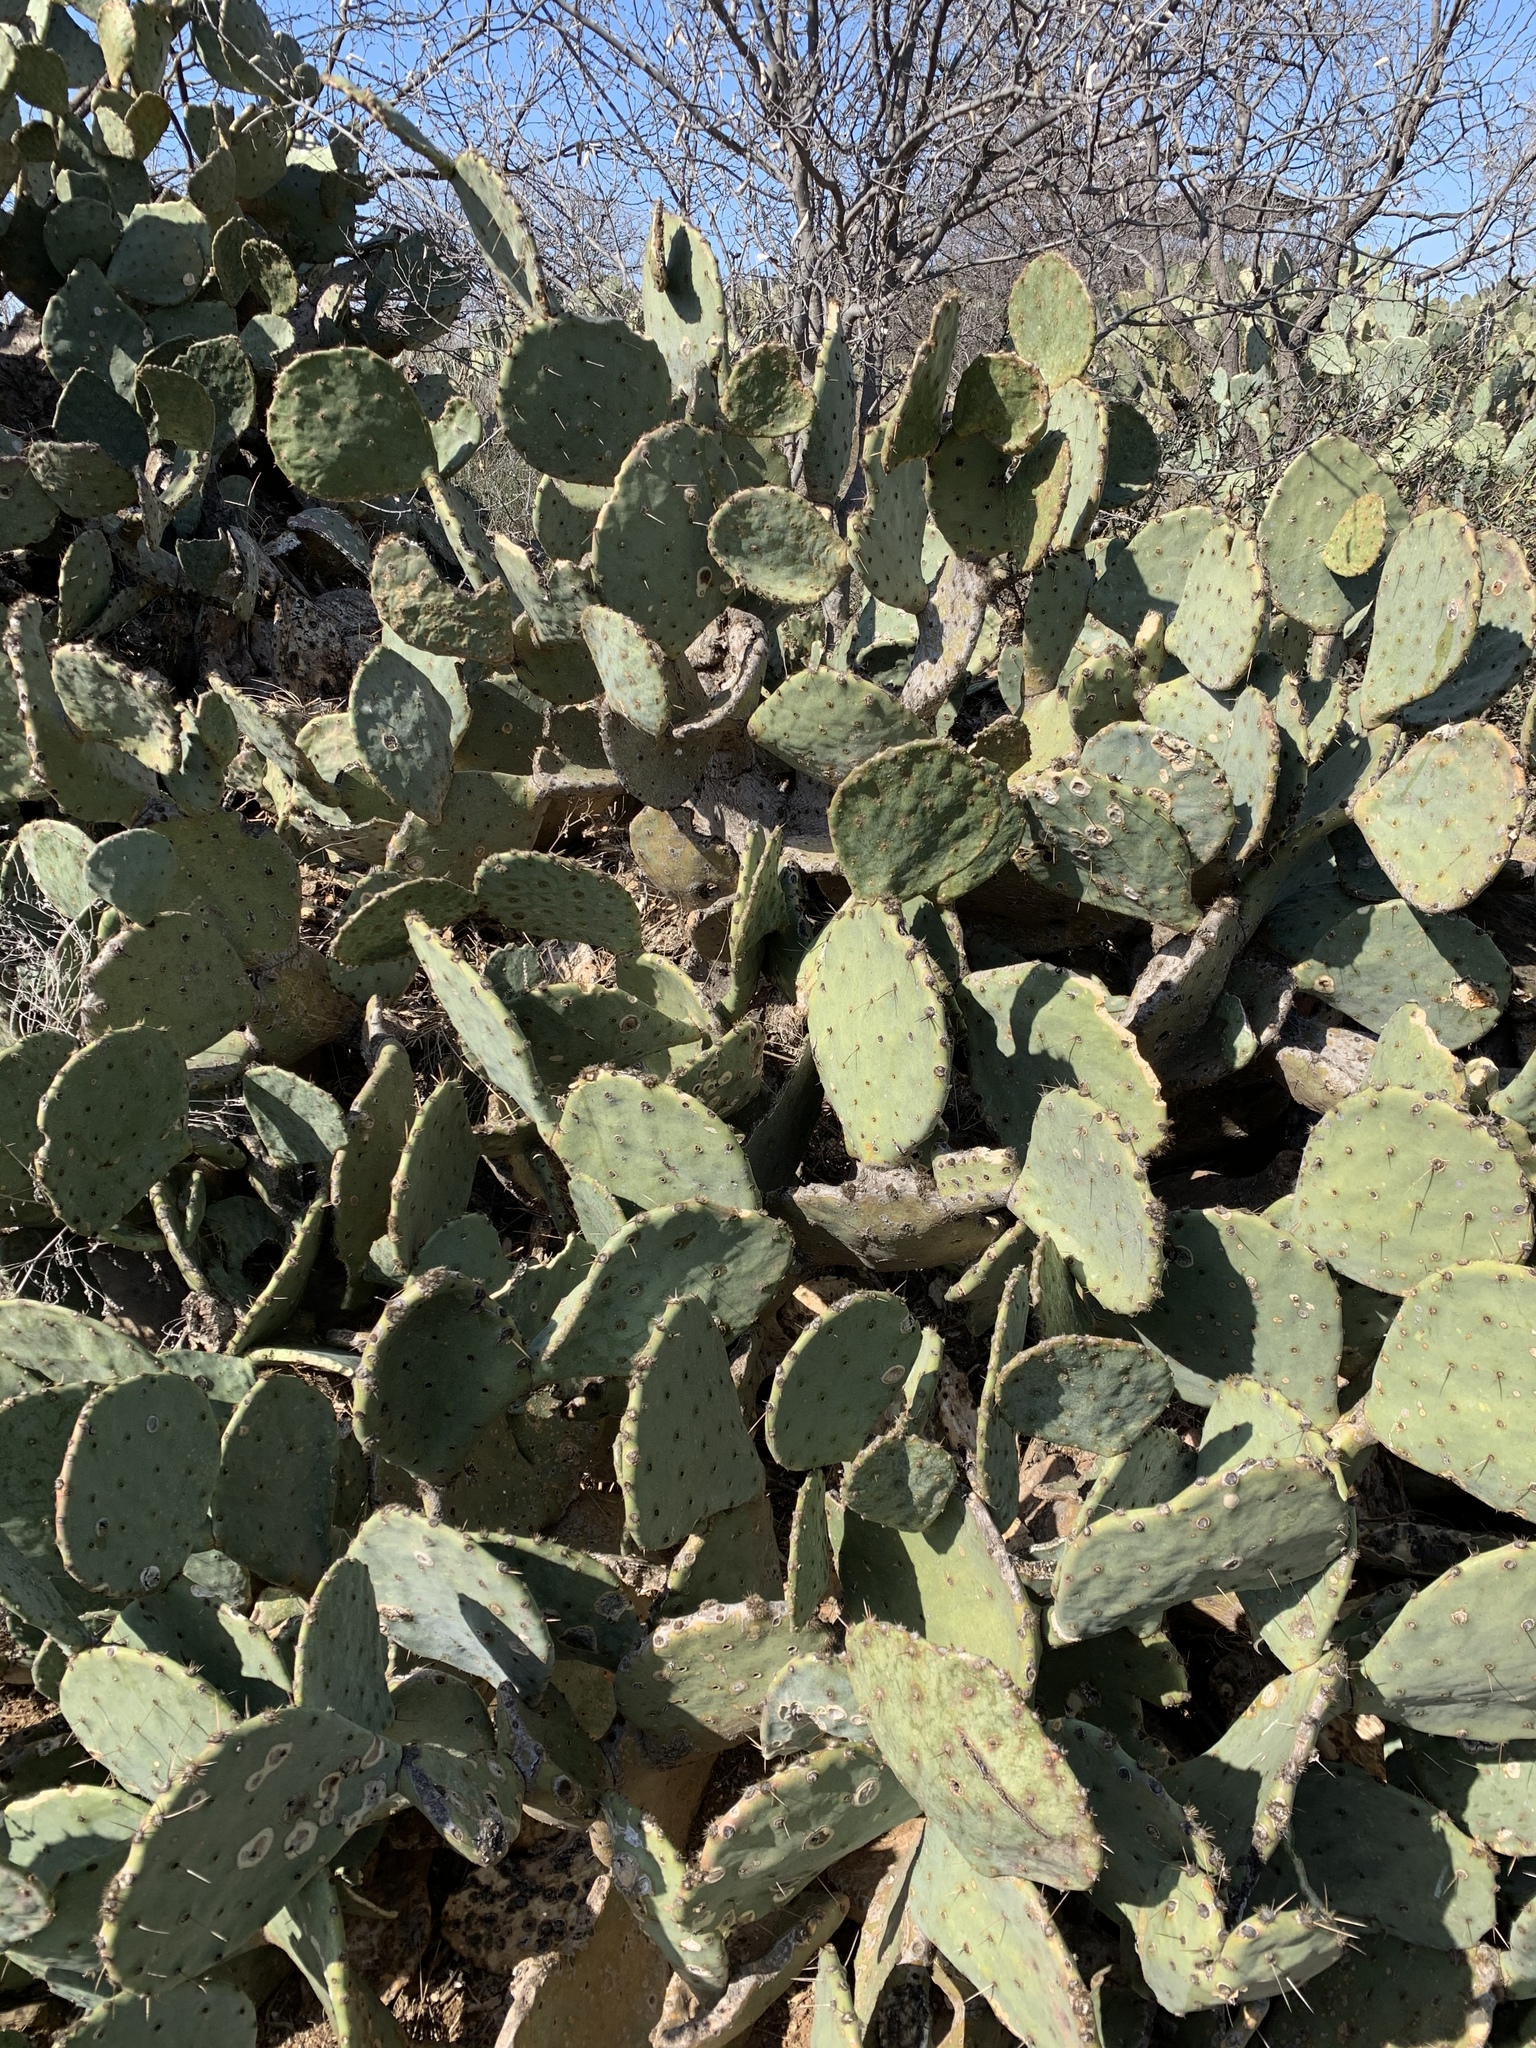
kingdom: Plantae
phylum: Tracheophyta
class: Magnoliopsida
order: Caryophyllales
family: Cactaceae
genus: Opuntia
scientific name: Opuntia engelmannii
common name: Cactus-apple
